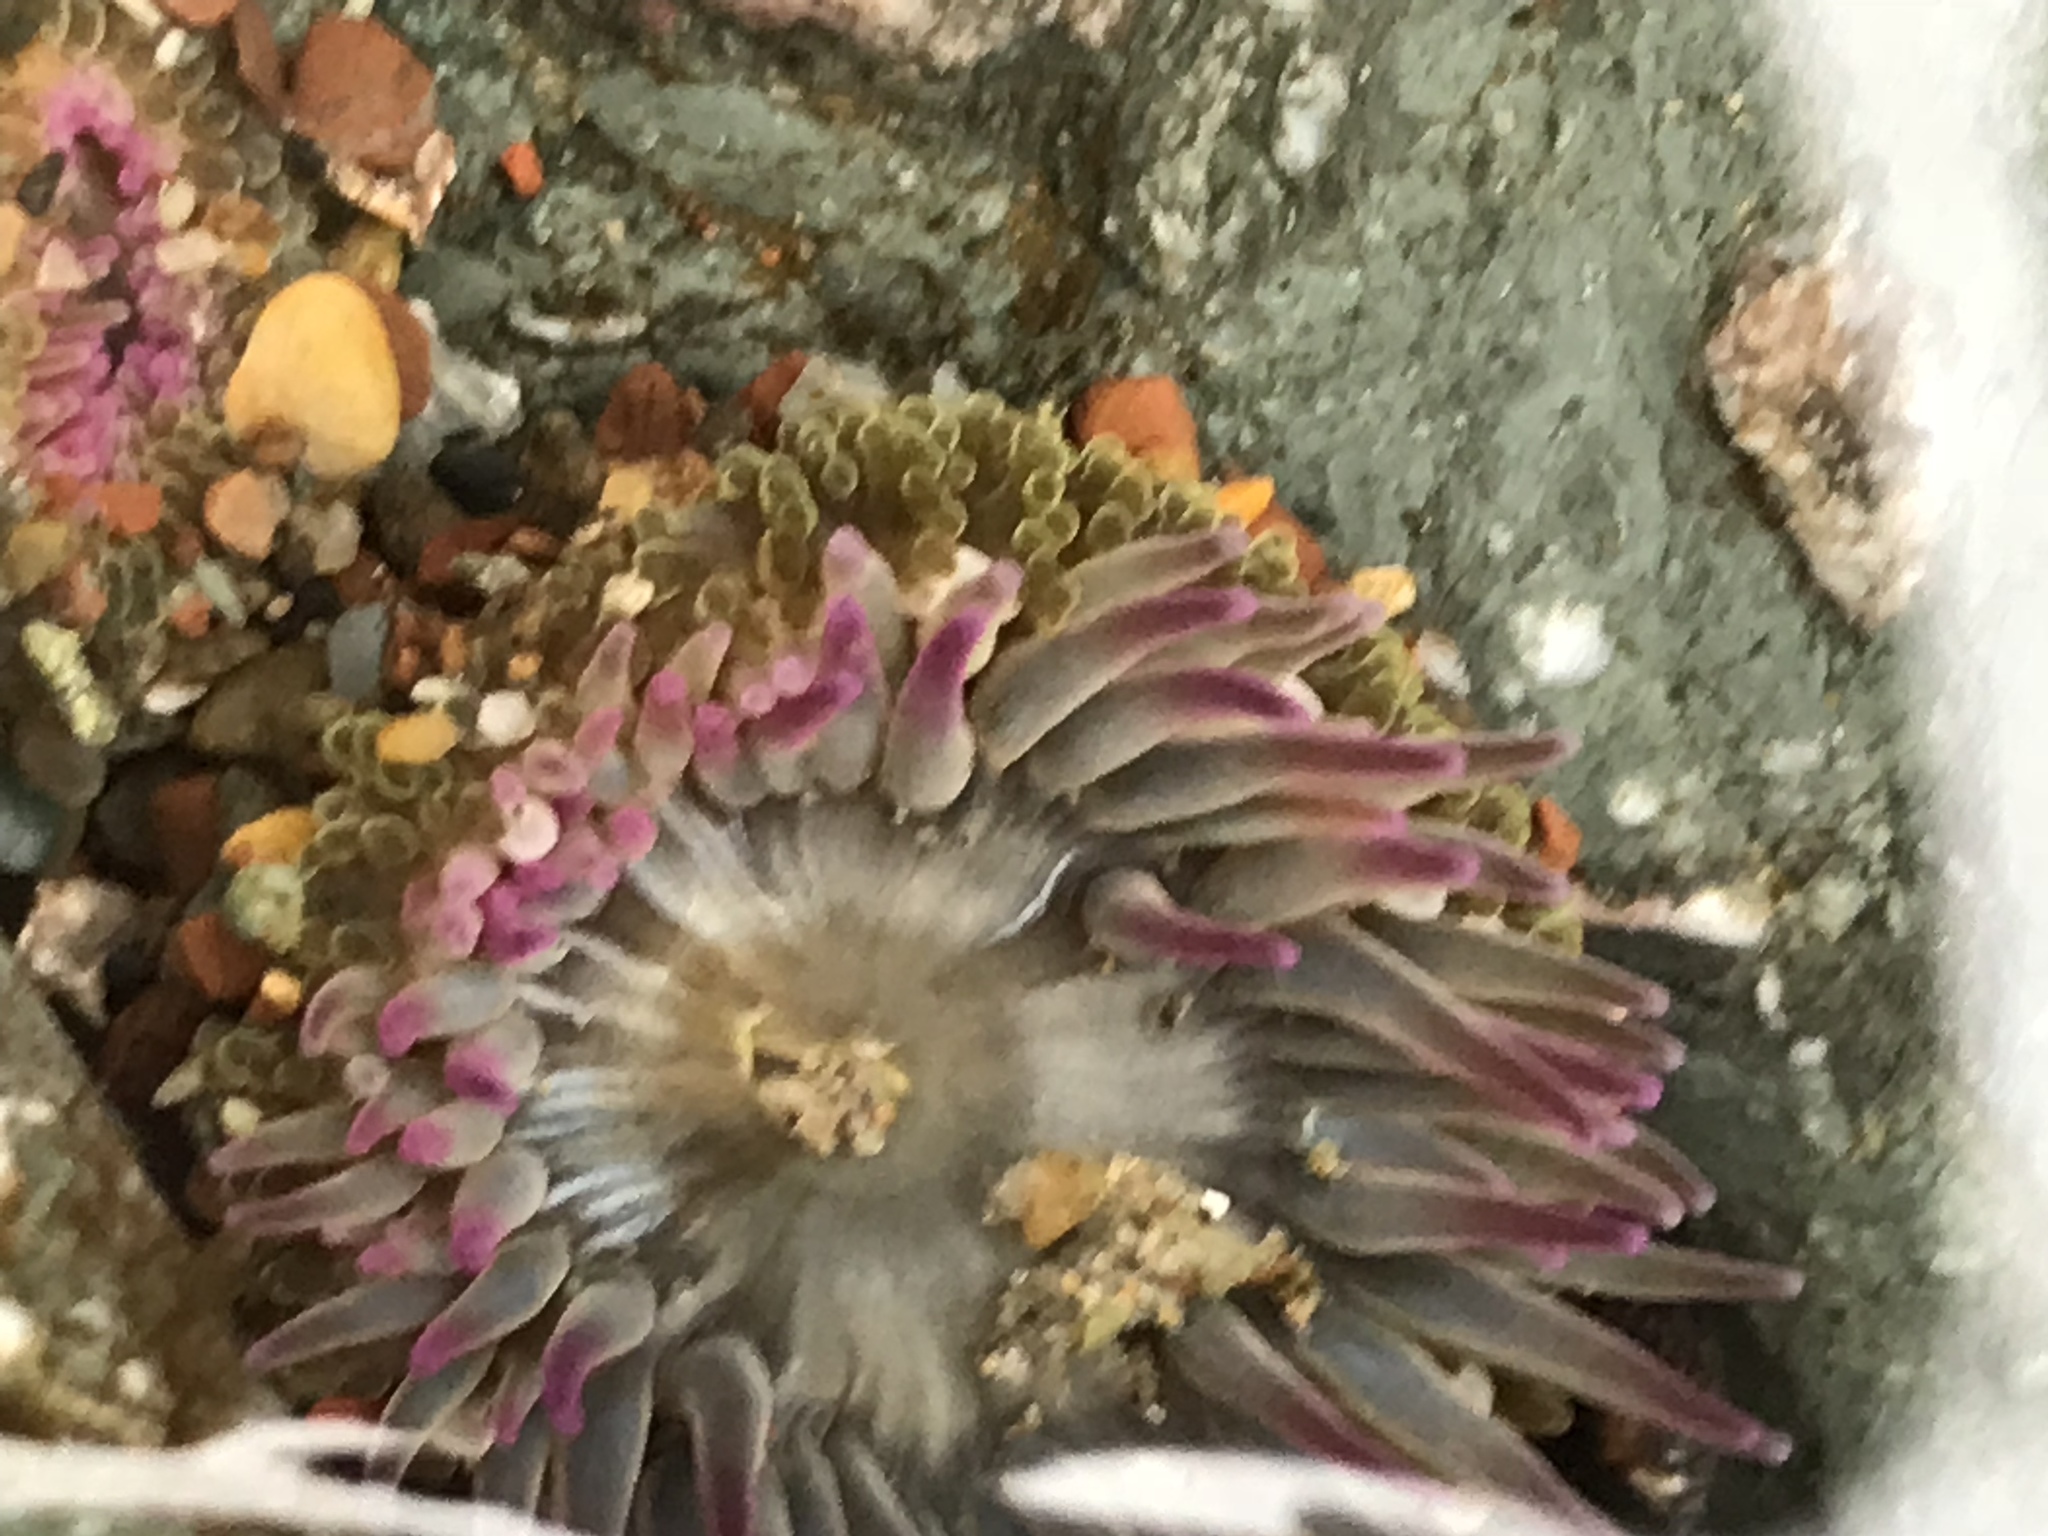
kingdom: Animalia
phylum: Cnidaria
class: Anthozoa
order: Actiniaria
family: Actiniidae
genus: Anthopleura
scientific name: Anthopleura elegantissima
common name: Clonal anemone
